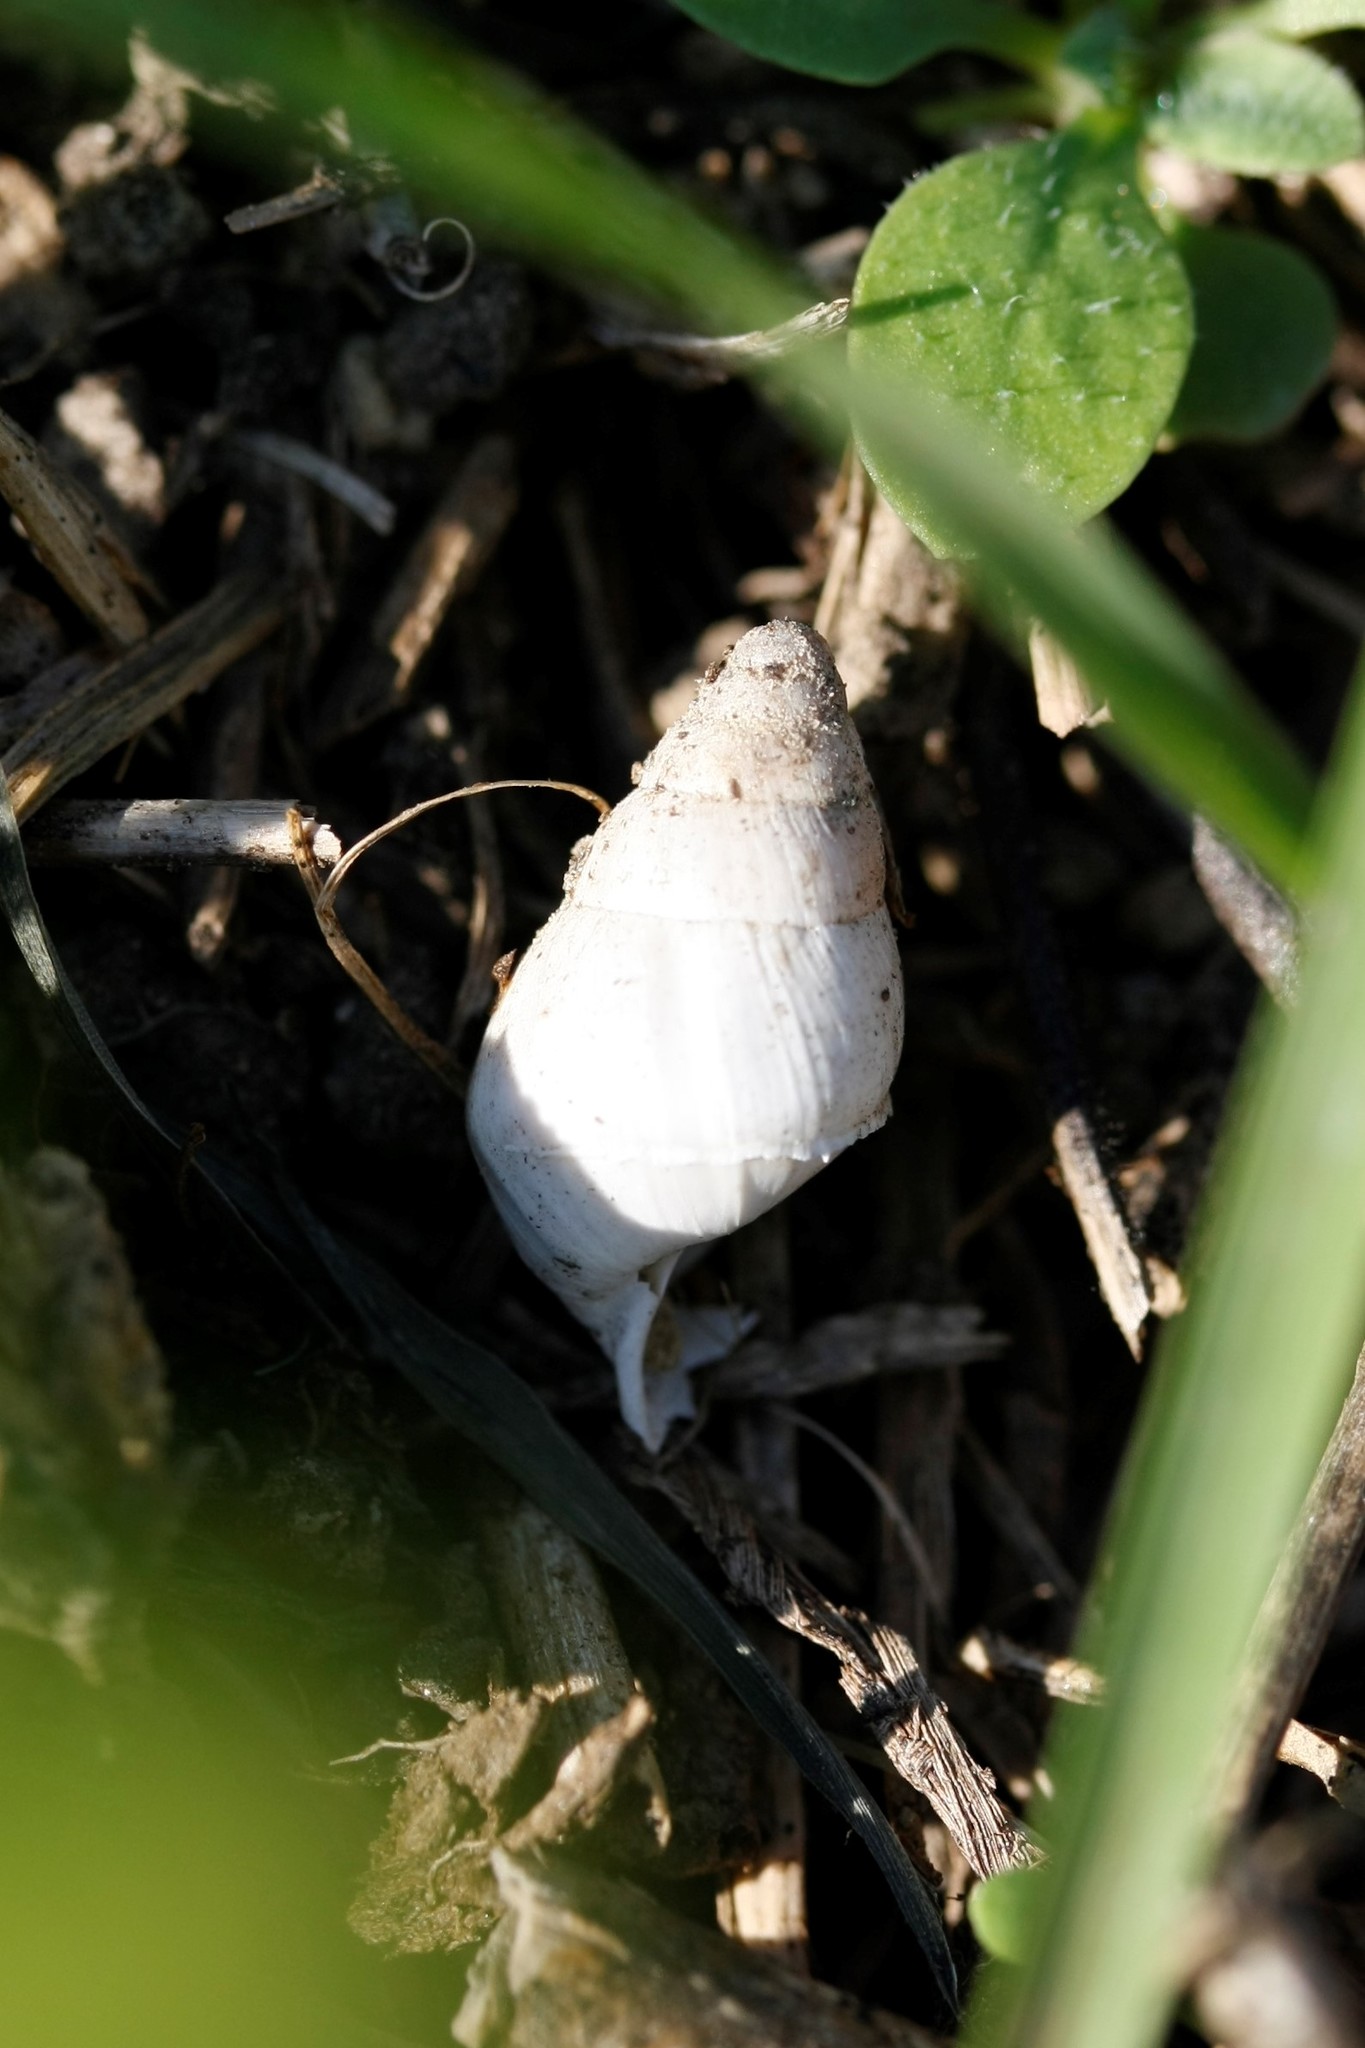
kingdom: Animalia
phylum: Mollusca
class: Gastropoda
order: Stylommatophora
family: Enidae
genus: Zebrina
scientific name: Zebrina detrita
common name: Large bulin
